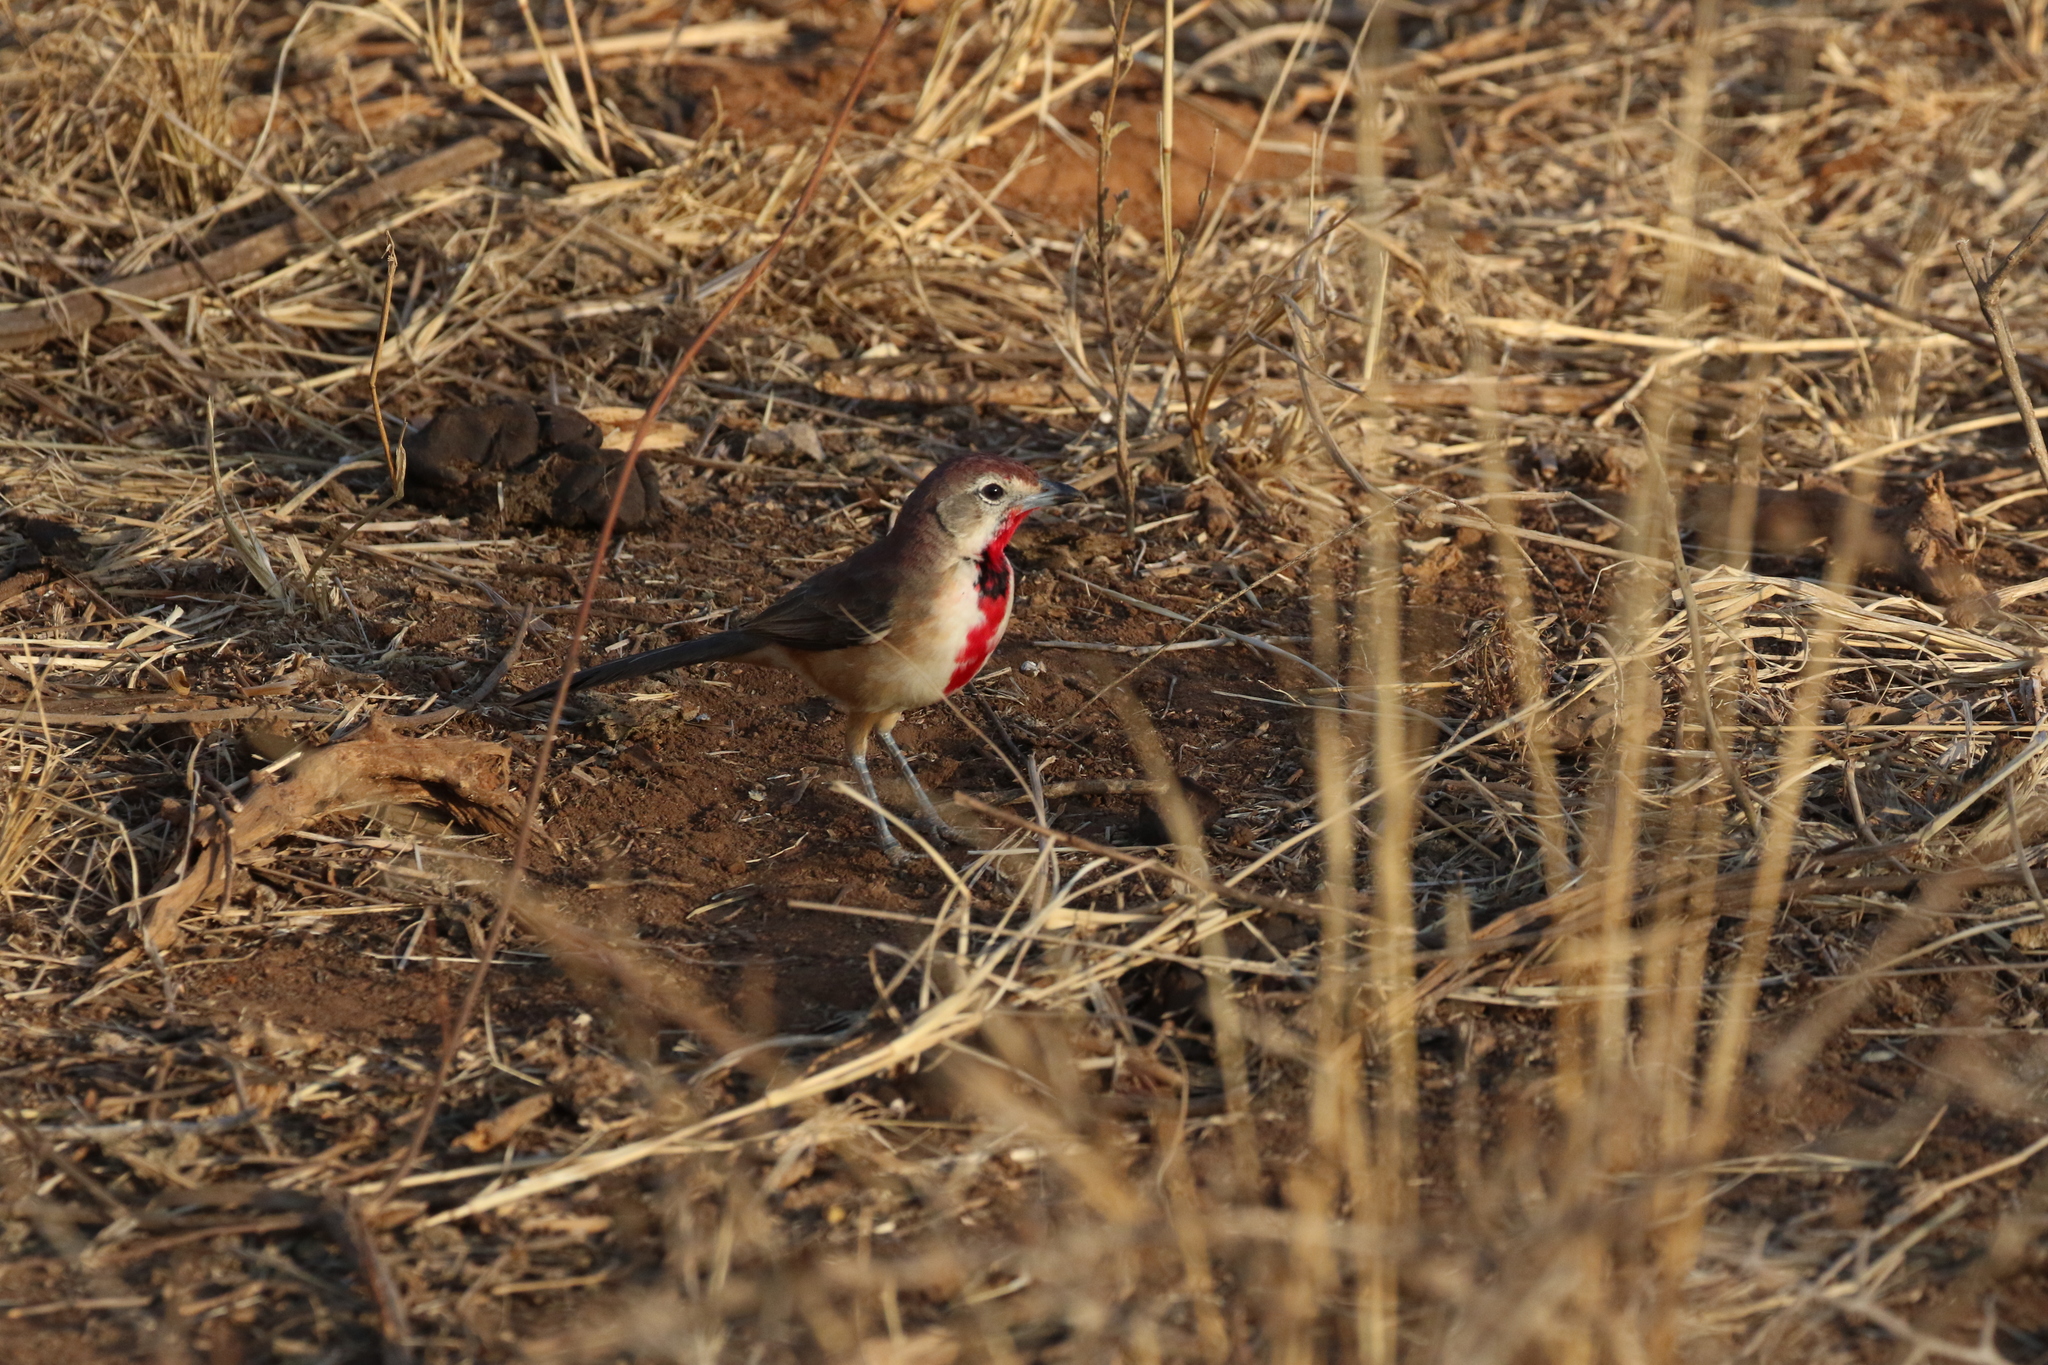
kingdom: Animalia
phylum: Chordata
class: Aves
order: Passeriformes
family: Malaconotidae
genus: Telophorus
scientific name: Telophorus cruentus
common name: Rosy-patched bushshrike
